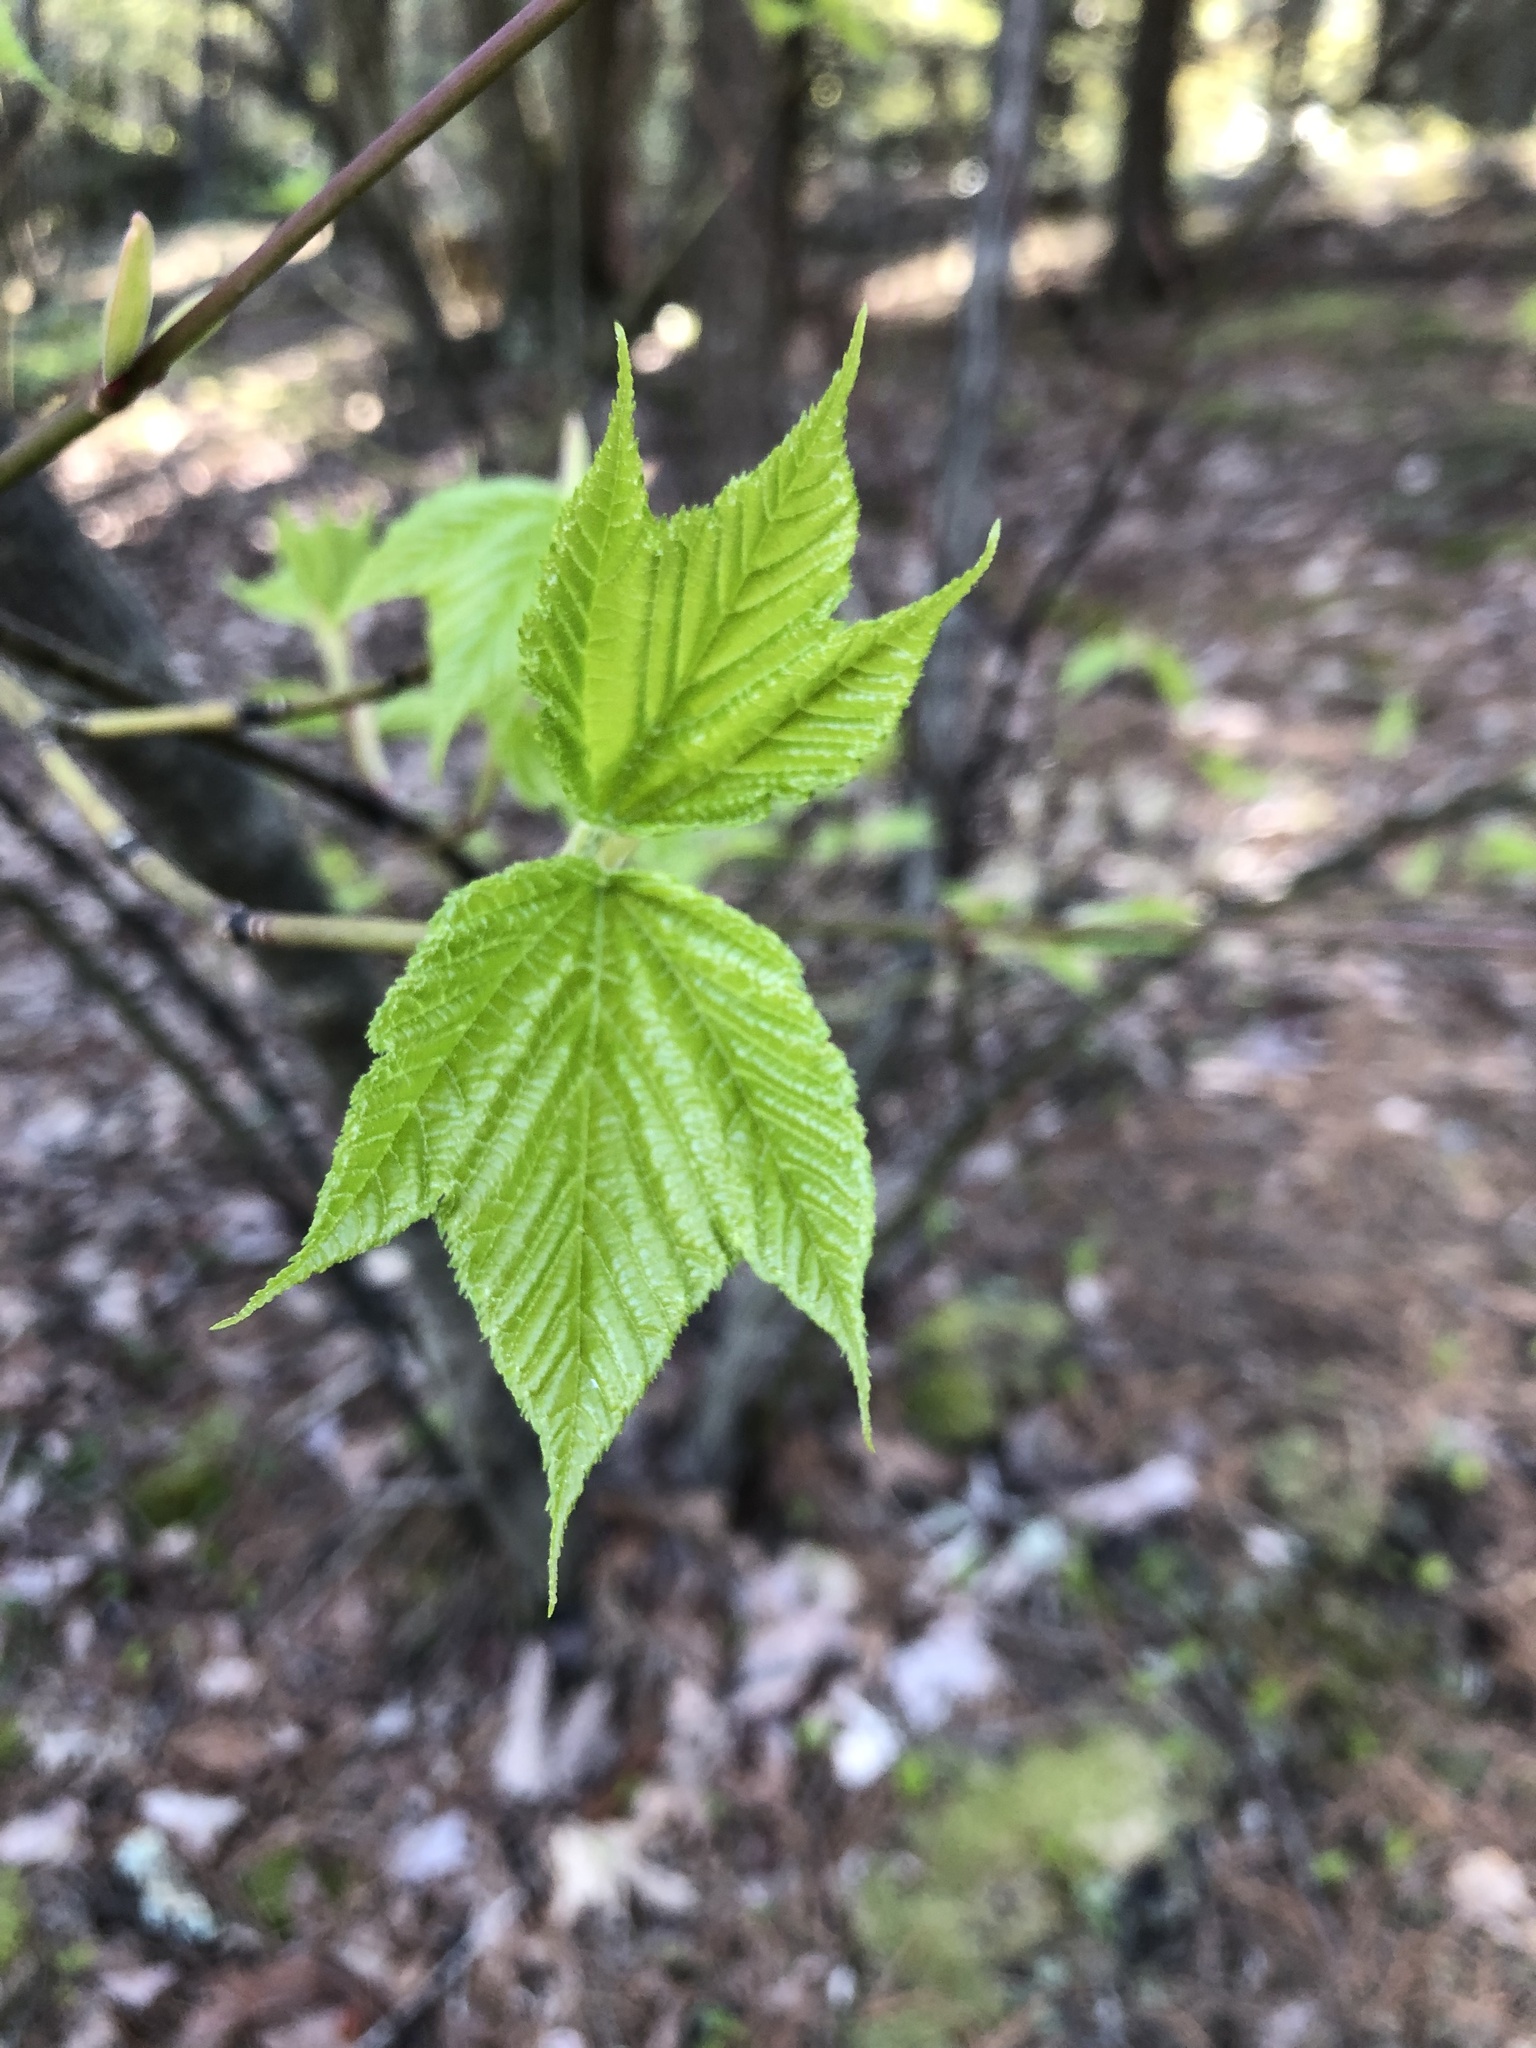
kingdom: Plantae
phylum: Tracheophyta
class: Magnoliopsida
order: Sapindales
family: Sapindaceae
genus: Acer
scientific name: Acer pensylvanicum
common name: Moosewood
